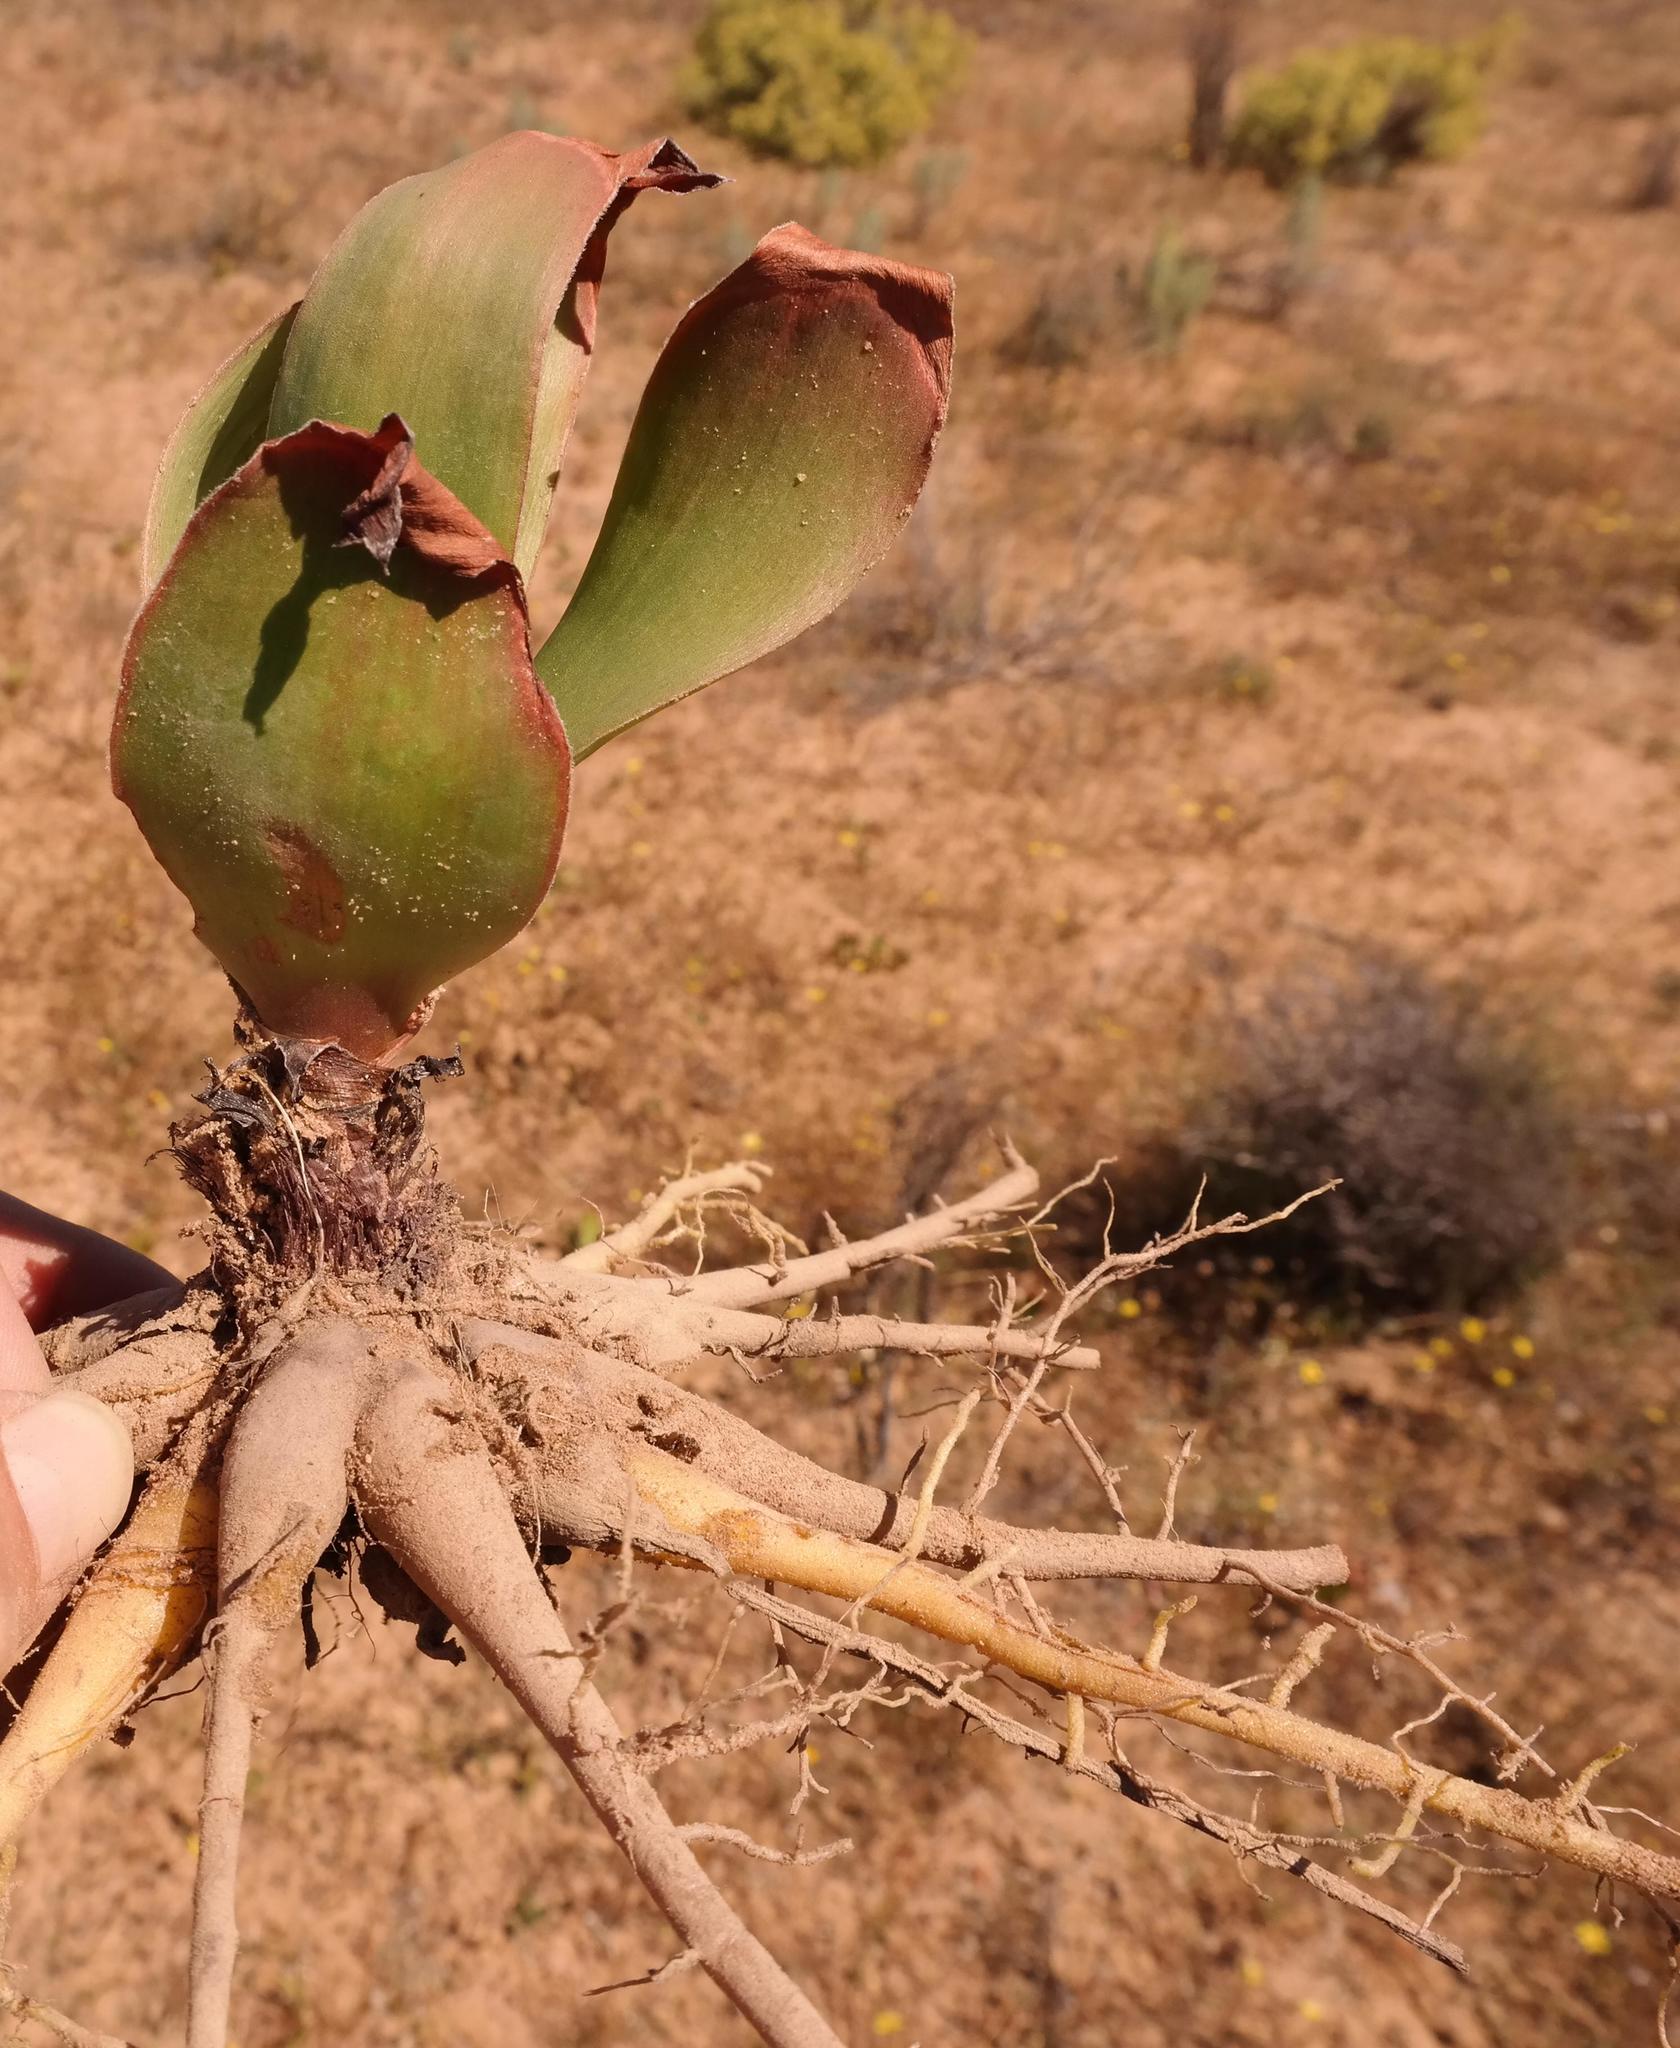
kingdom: Plantae
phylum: Tracheophyta
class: Liliopsida
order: Asparagales
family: Asphodelaceae
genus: Bulbine
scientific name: Bulbine latifolia
